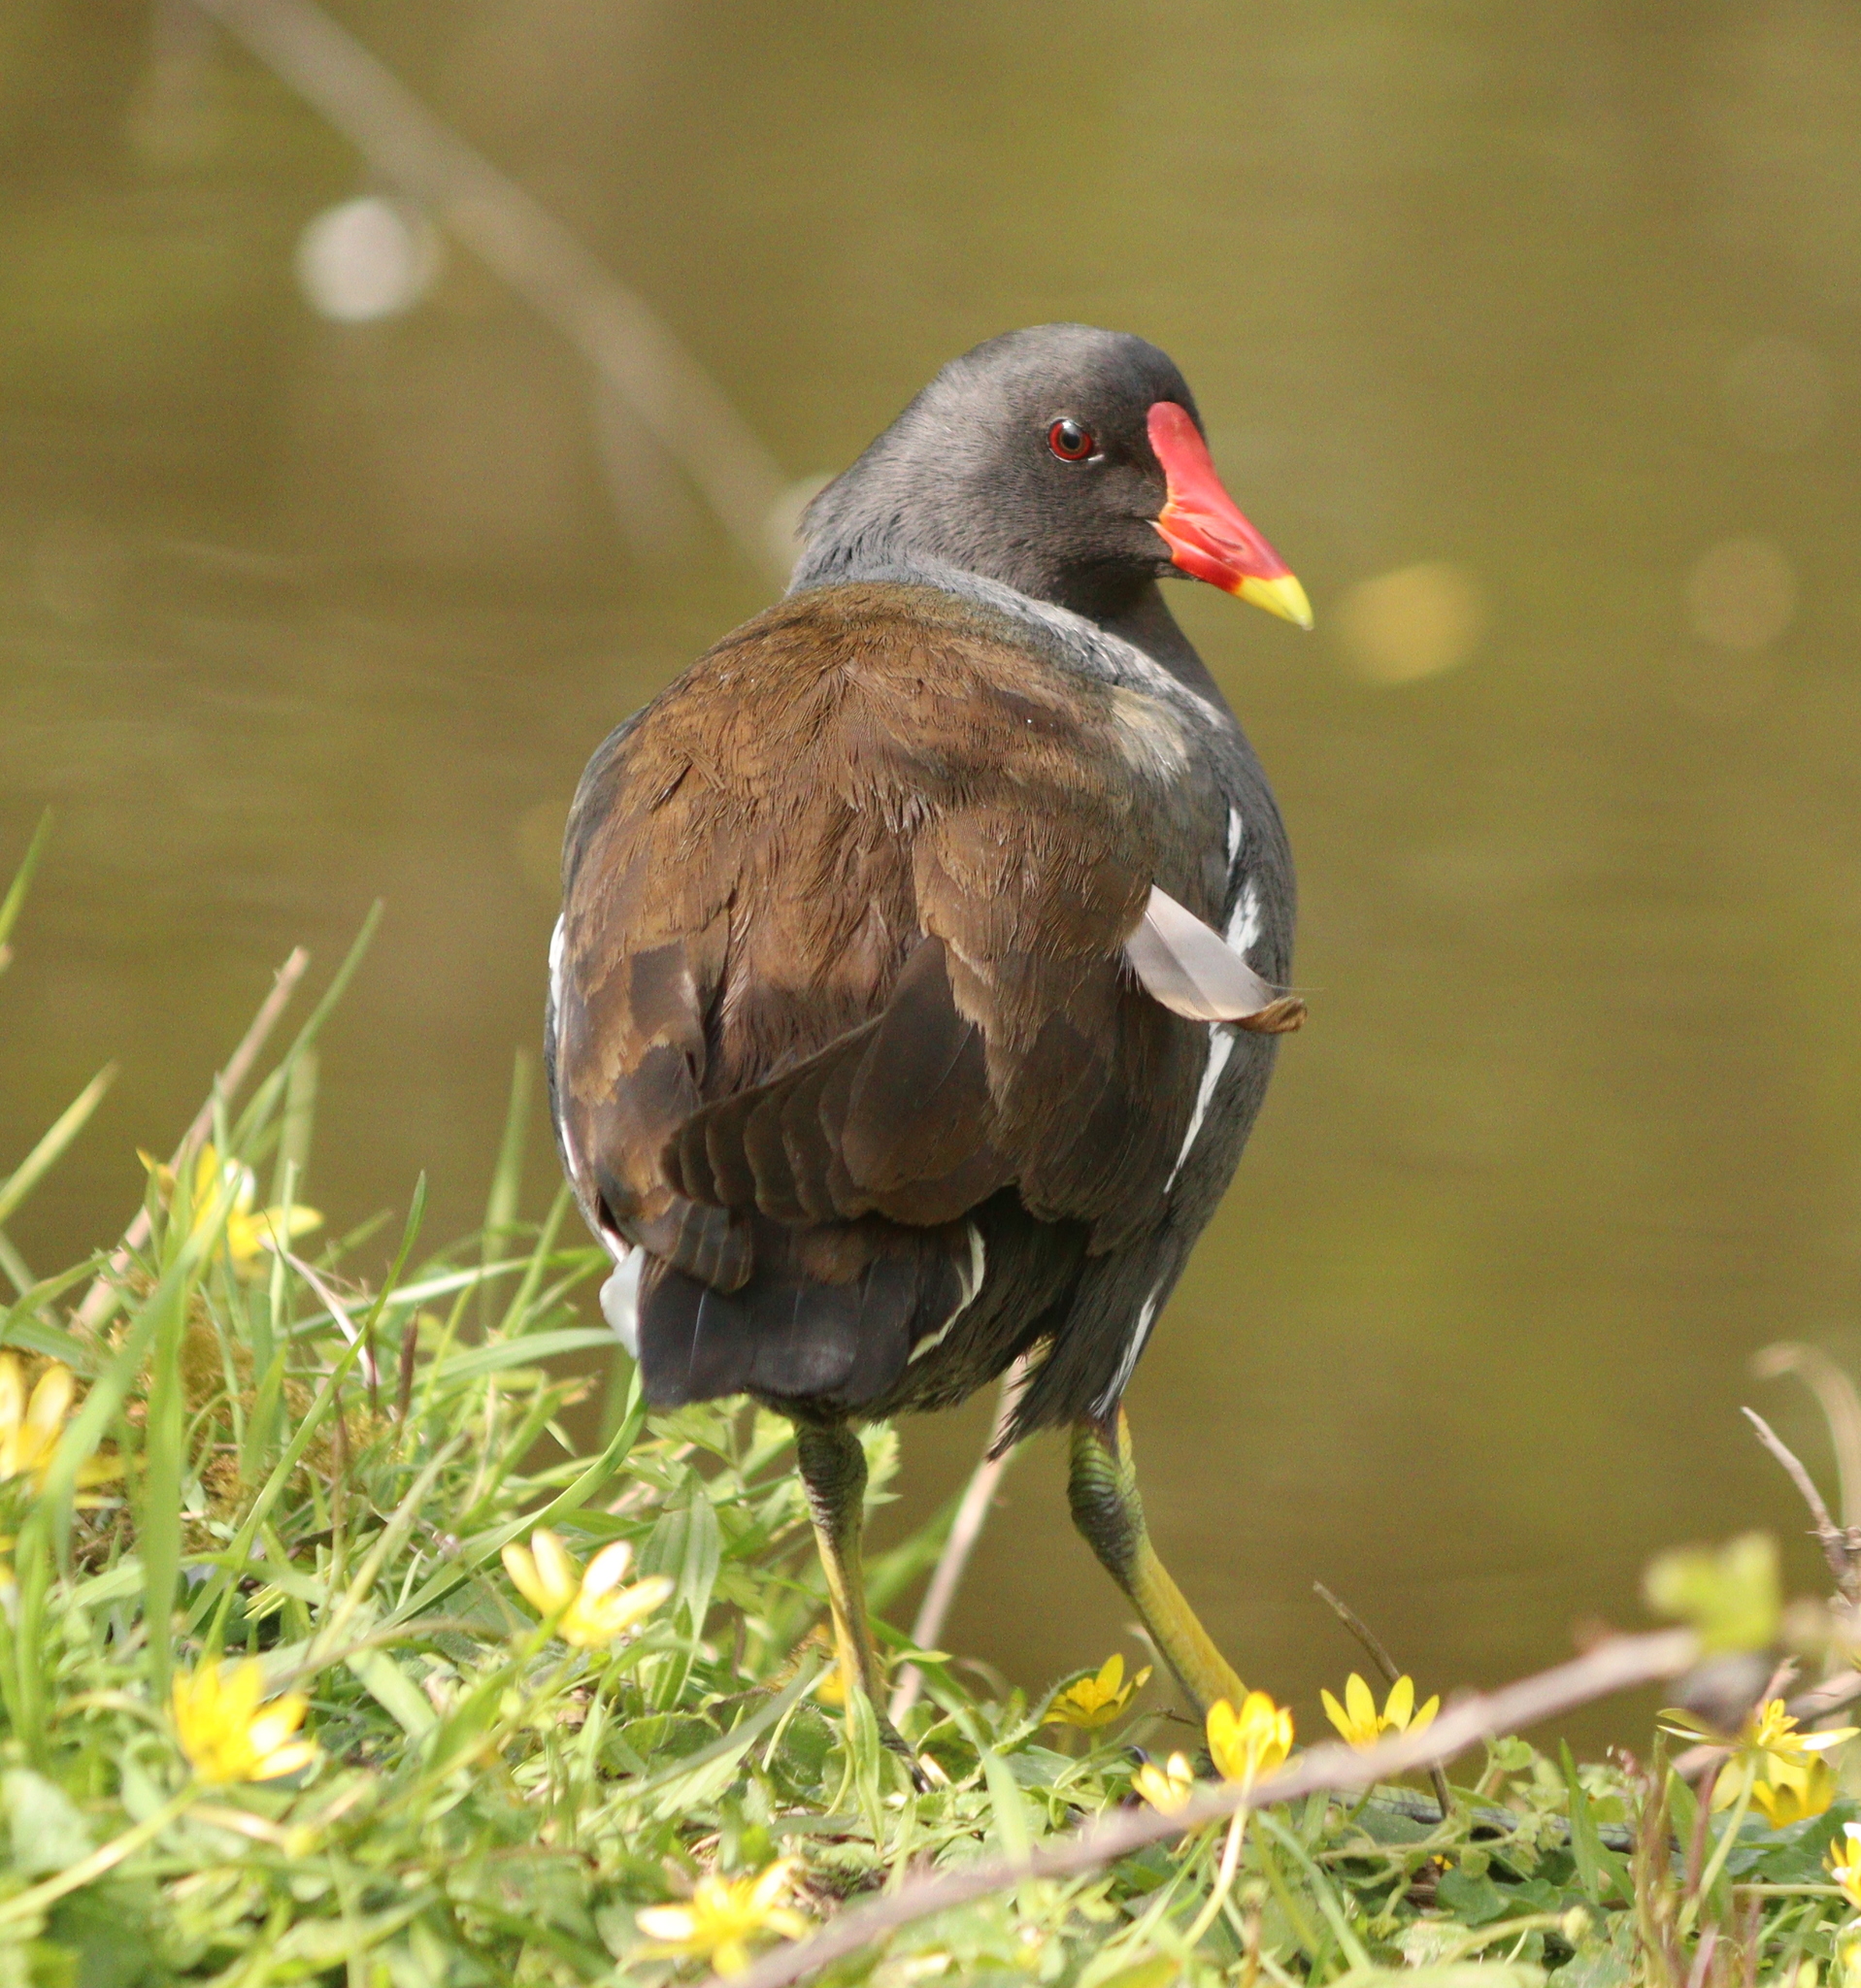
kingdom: Animalia
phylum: Chordata
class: Aves
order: Gruiformes
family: Rallidae
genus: Gallinula
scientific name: Gallinula chloropus
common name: Common moorhen
